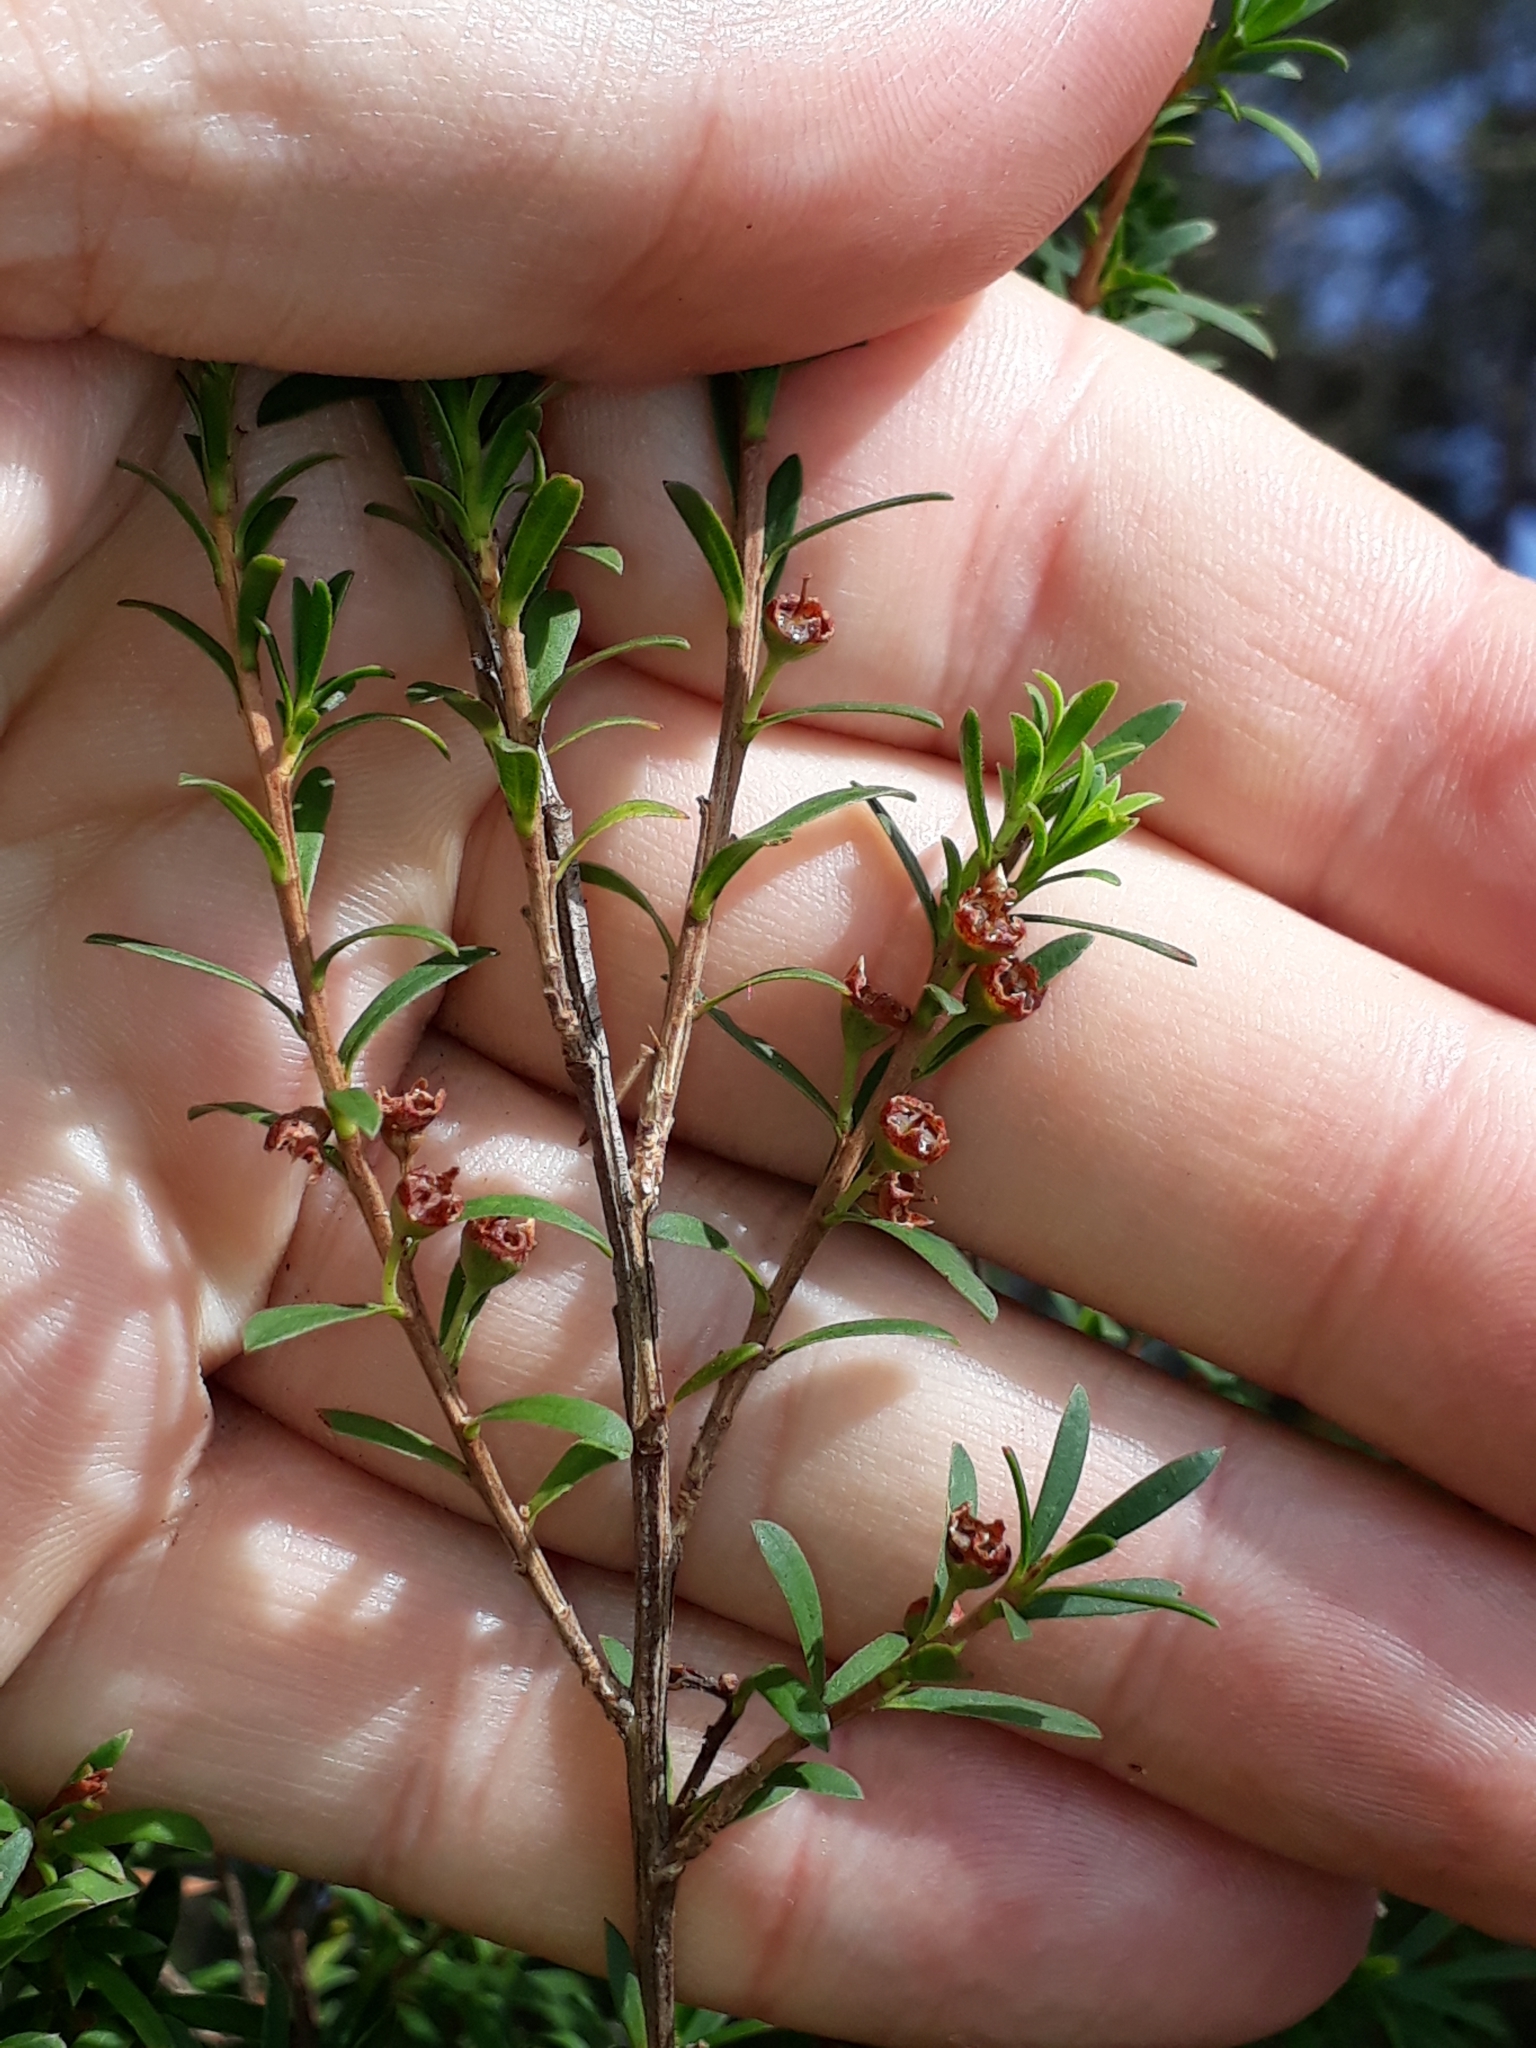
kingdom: Plantae
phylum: Tracheophyta
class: Magnoliopsida
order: Myrtales
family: Myrtaceae
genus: Kunzea
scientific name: Kunzea robusta
